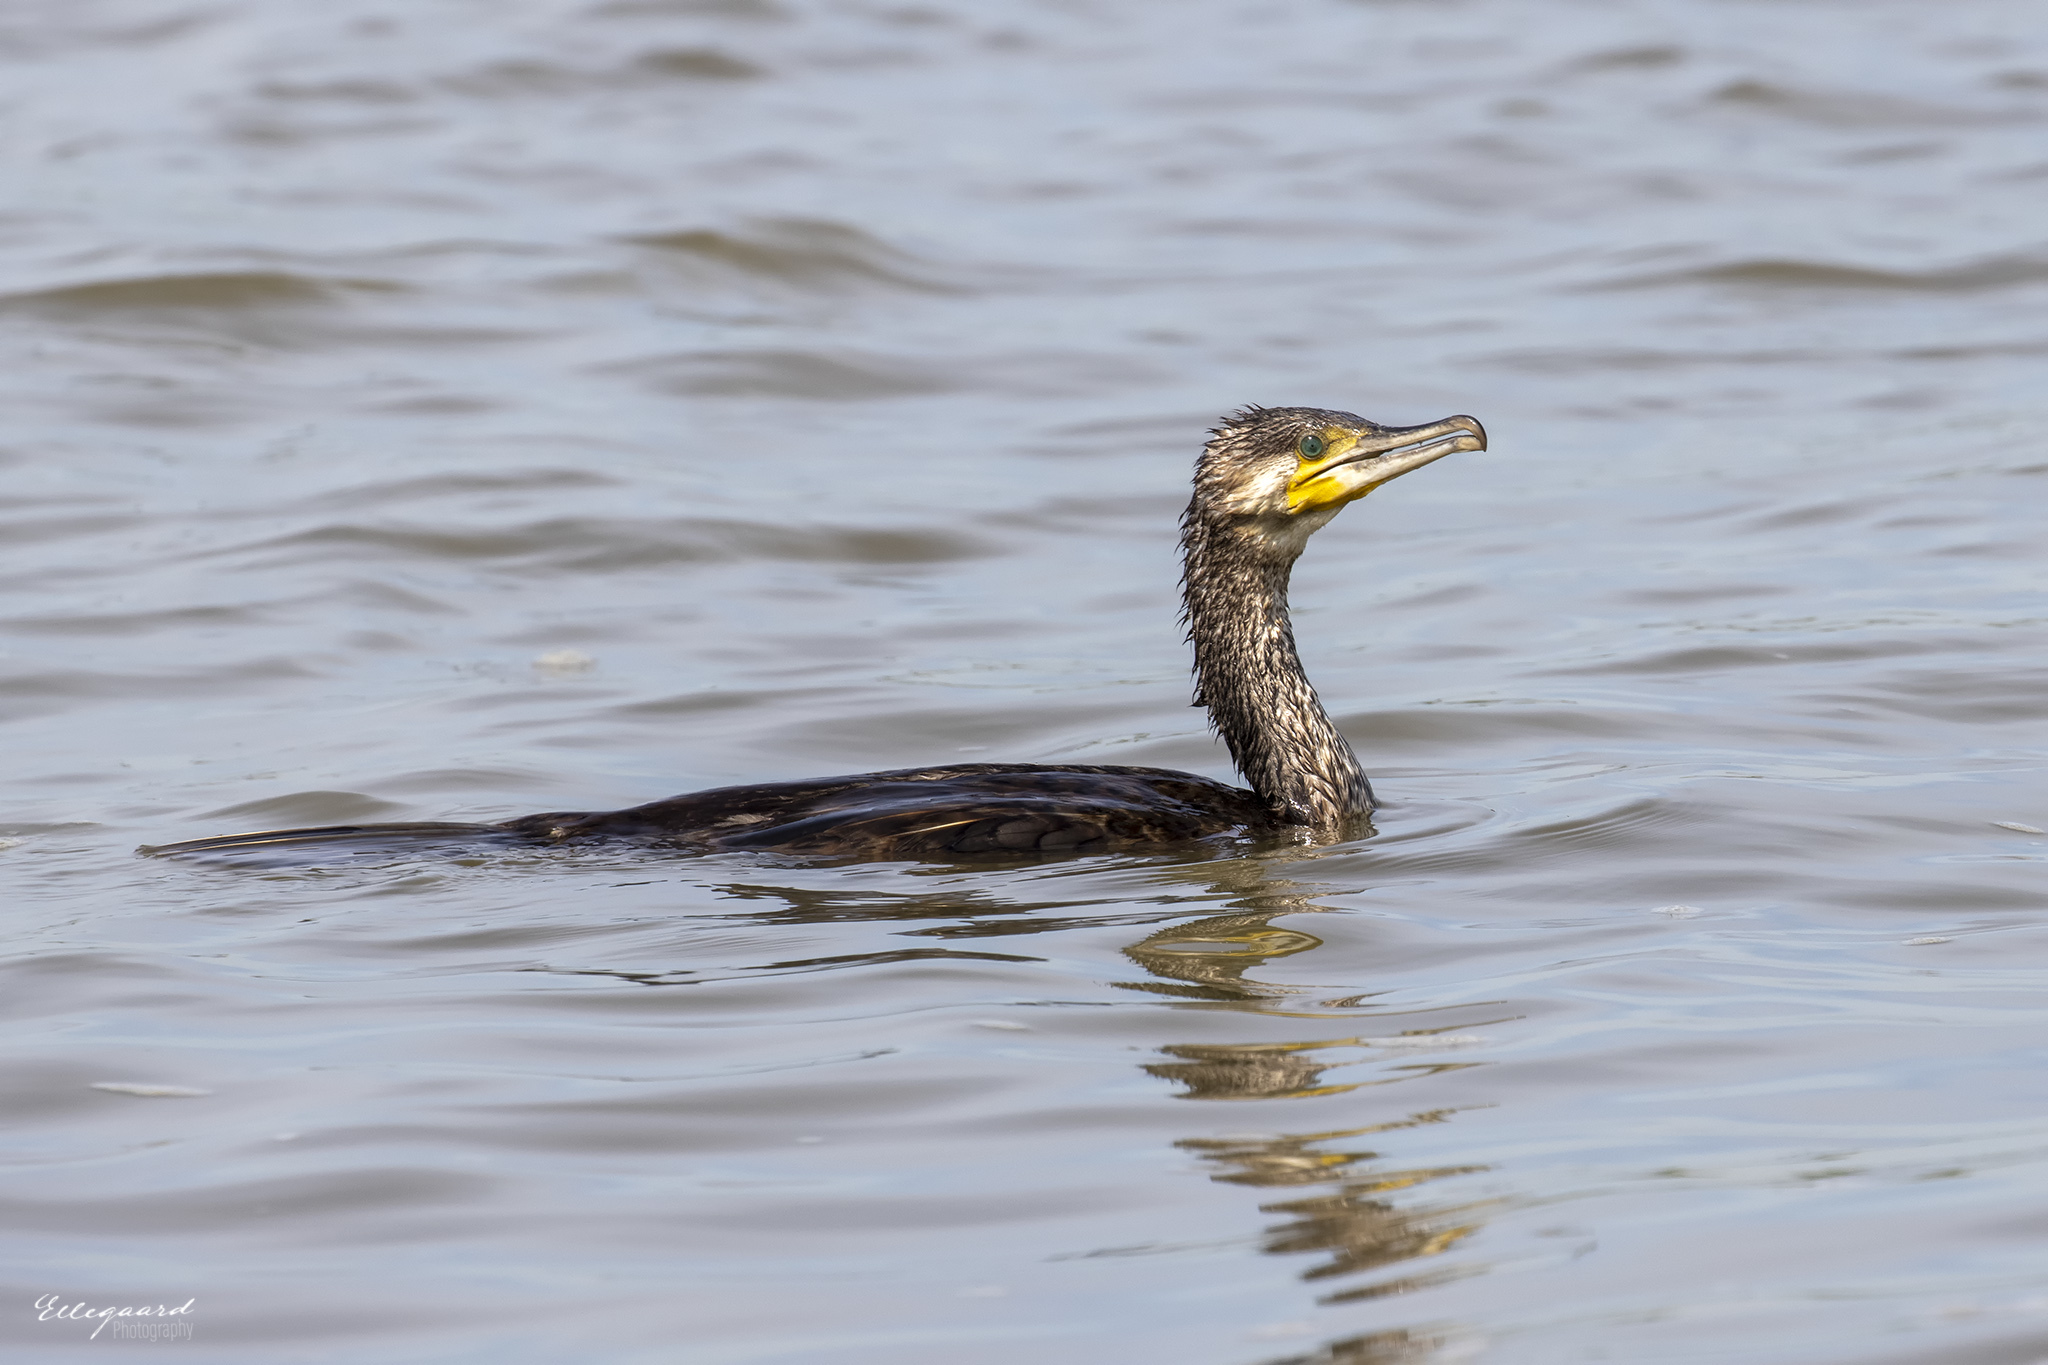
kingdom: Animalia
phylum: Chordata
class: Aves
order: Suliformes
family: Phalacrocoracidae
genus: Phalacrocorax
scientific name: Phalacrocorax carbo
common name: Great cormorant
